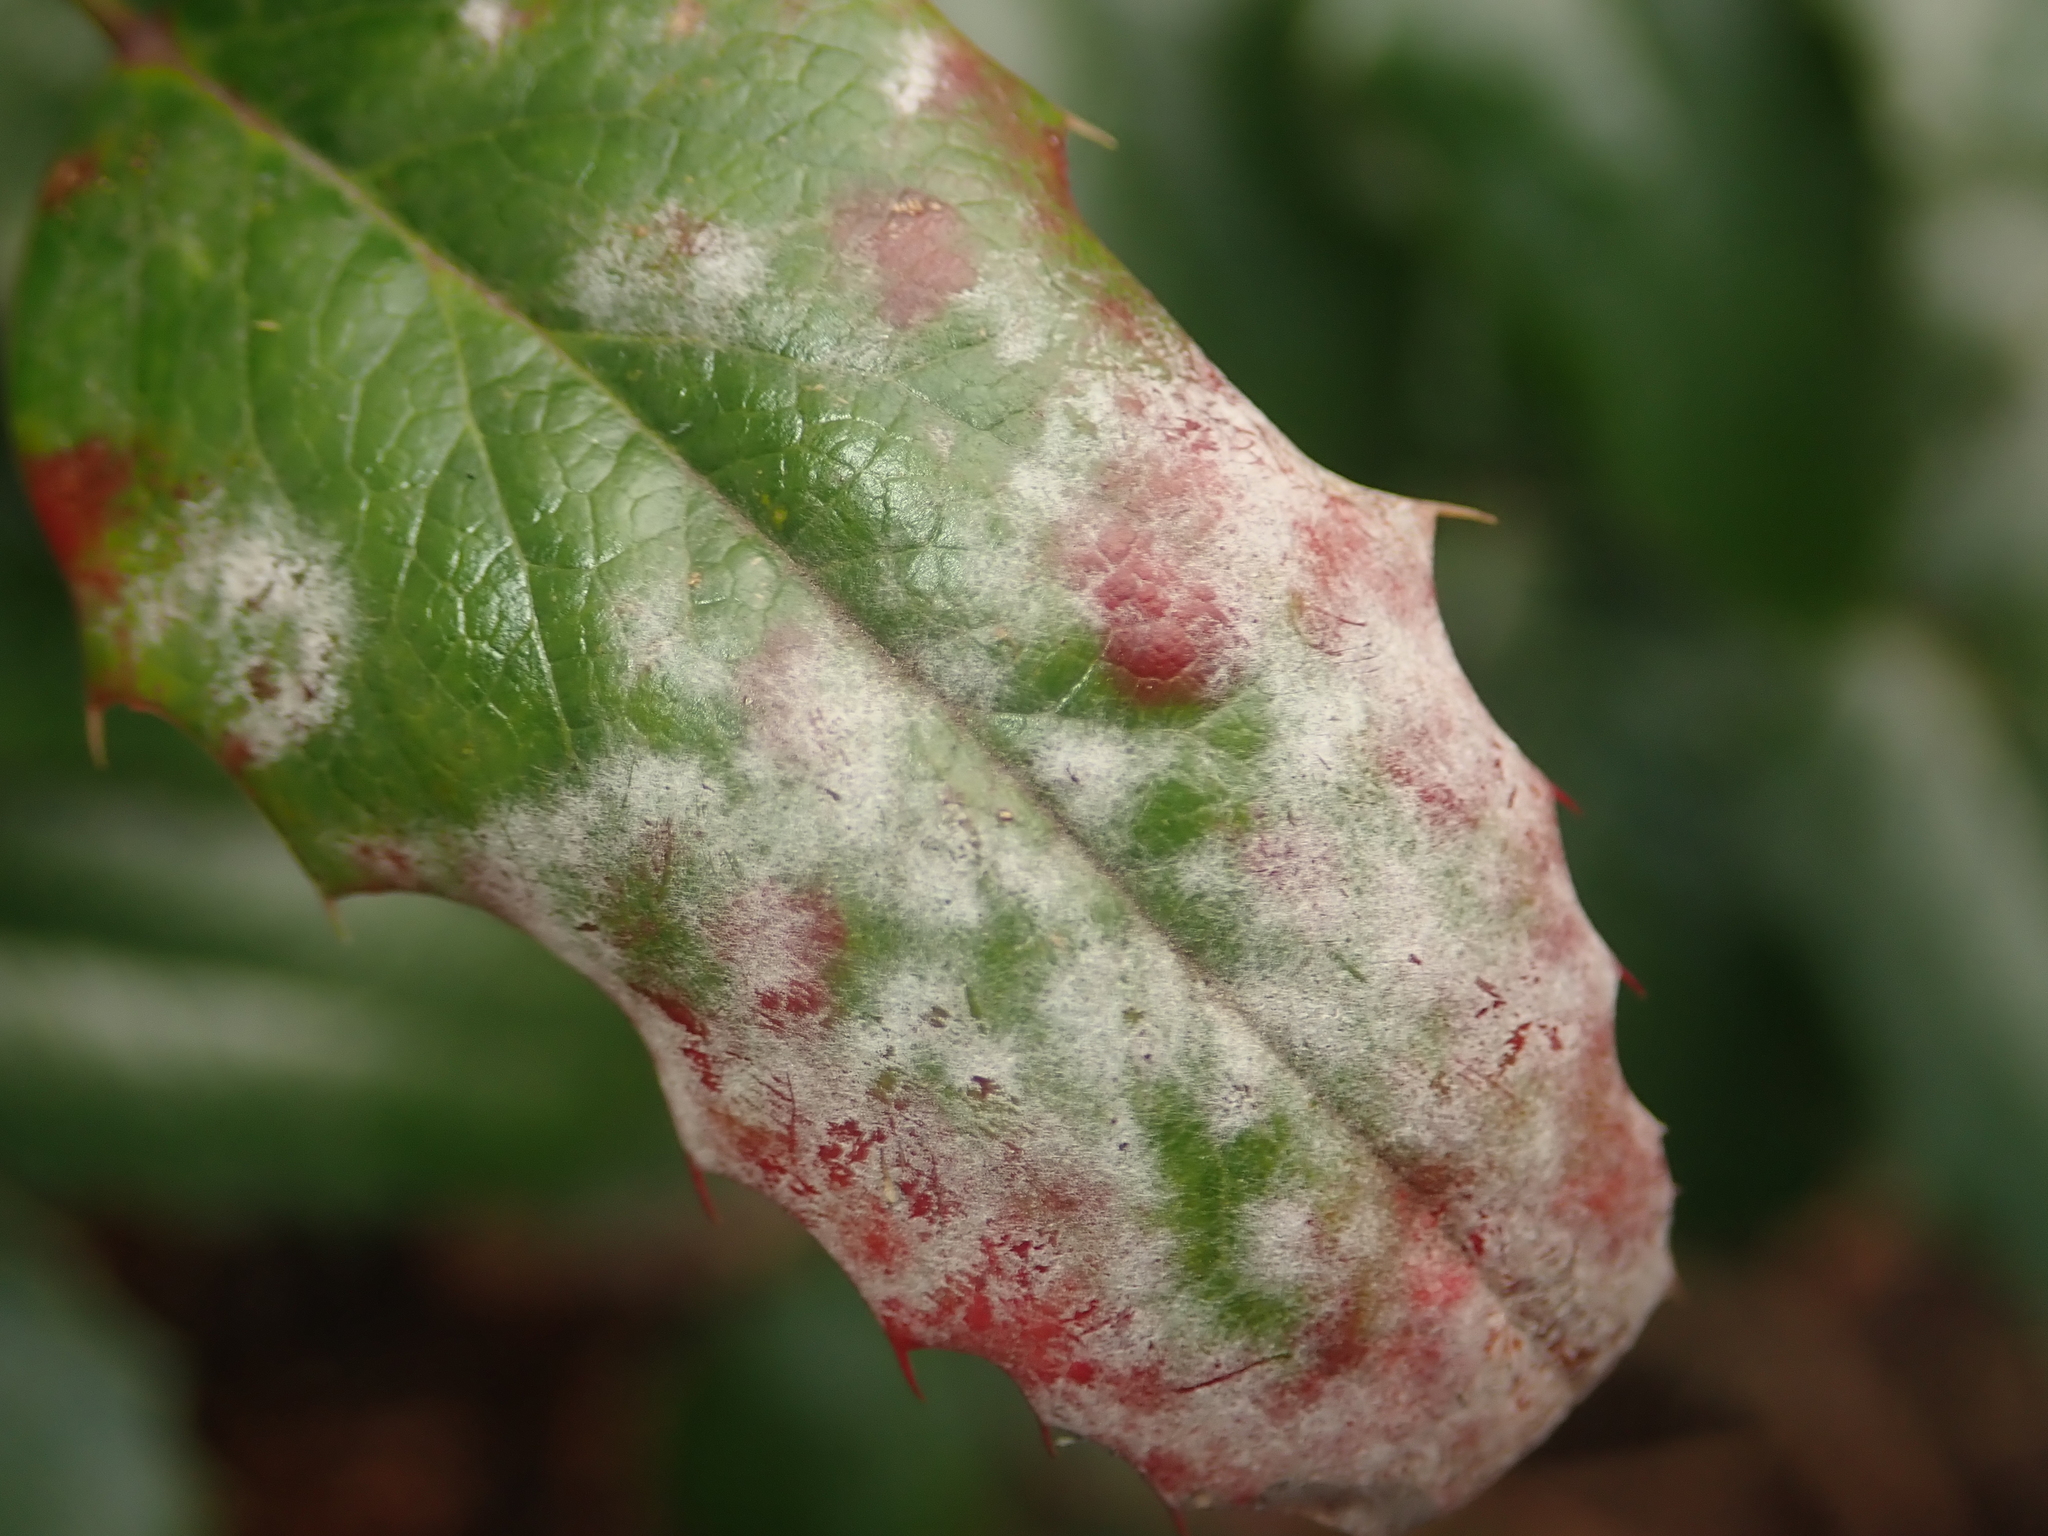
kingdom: Fungi
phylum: Ascomycota
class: Leotiomycetes
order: Helotiales
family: Erysiphaceae
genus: Erysiphe
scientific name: Erysiphe berberidis
